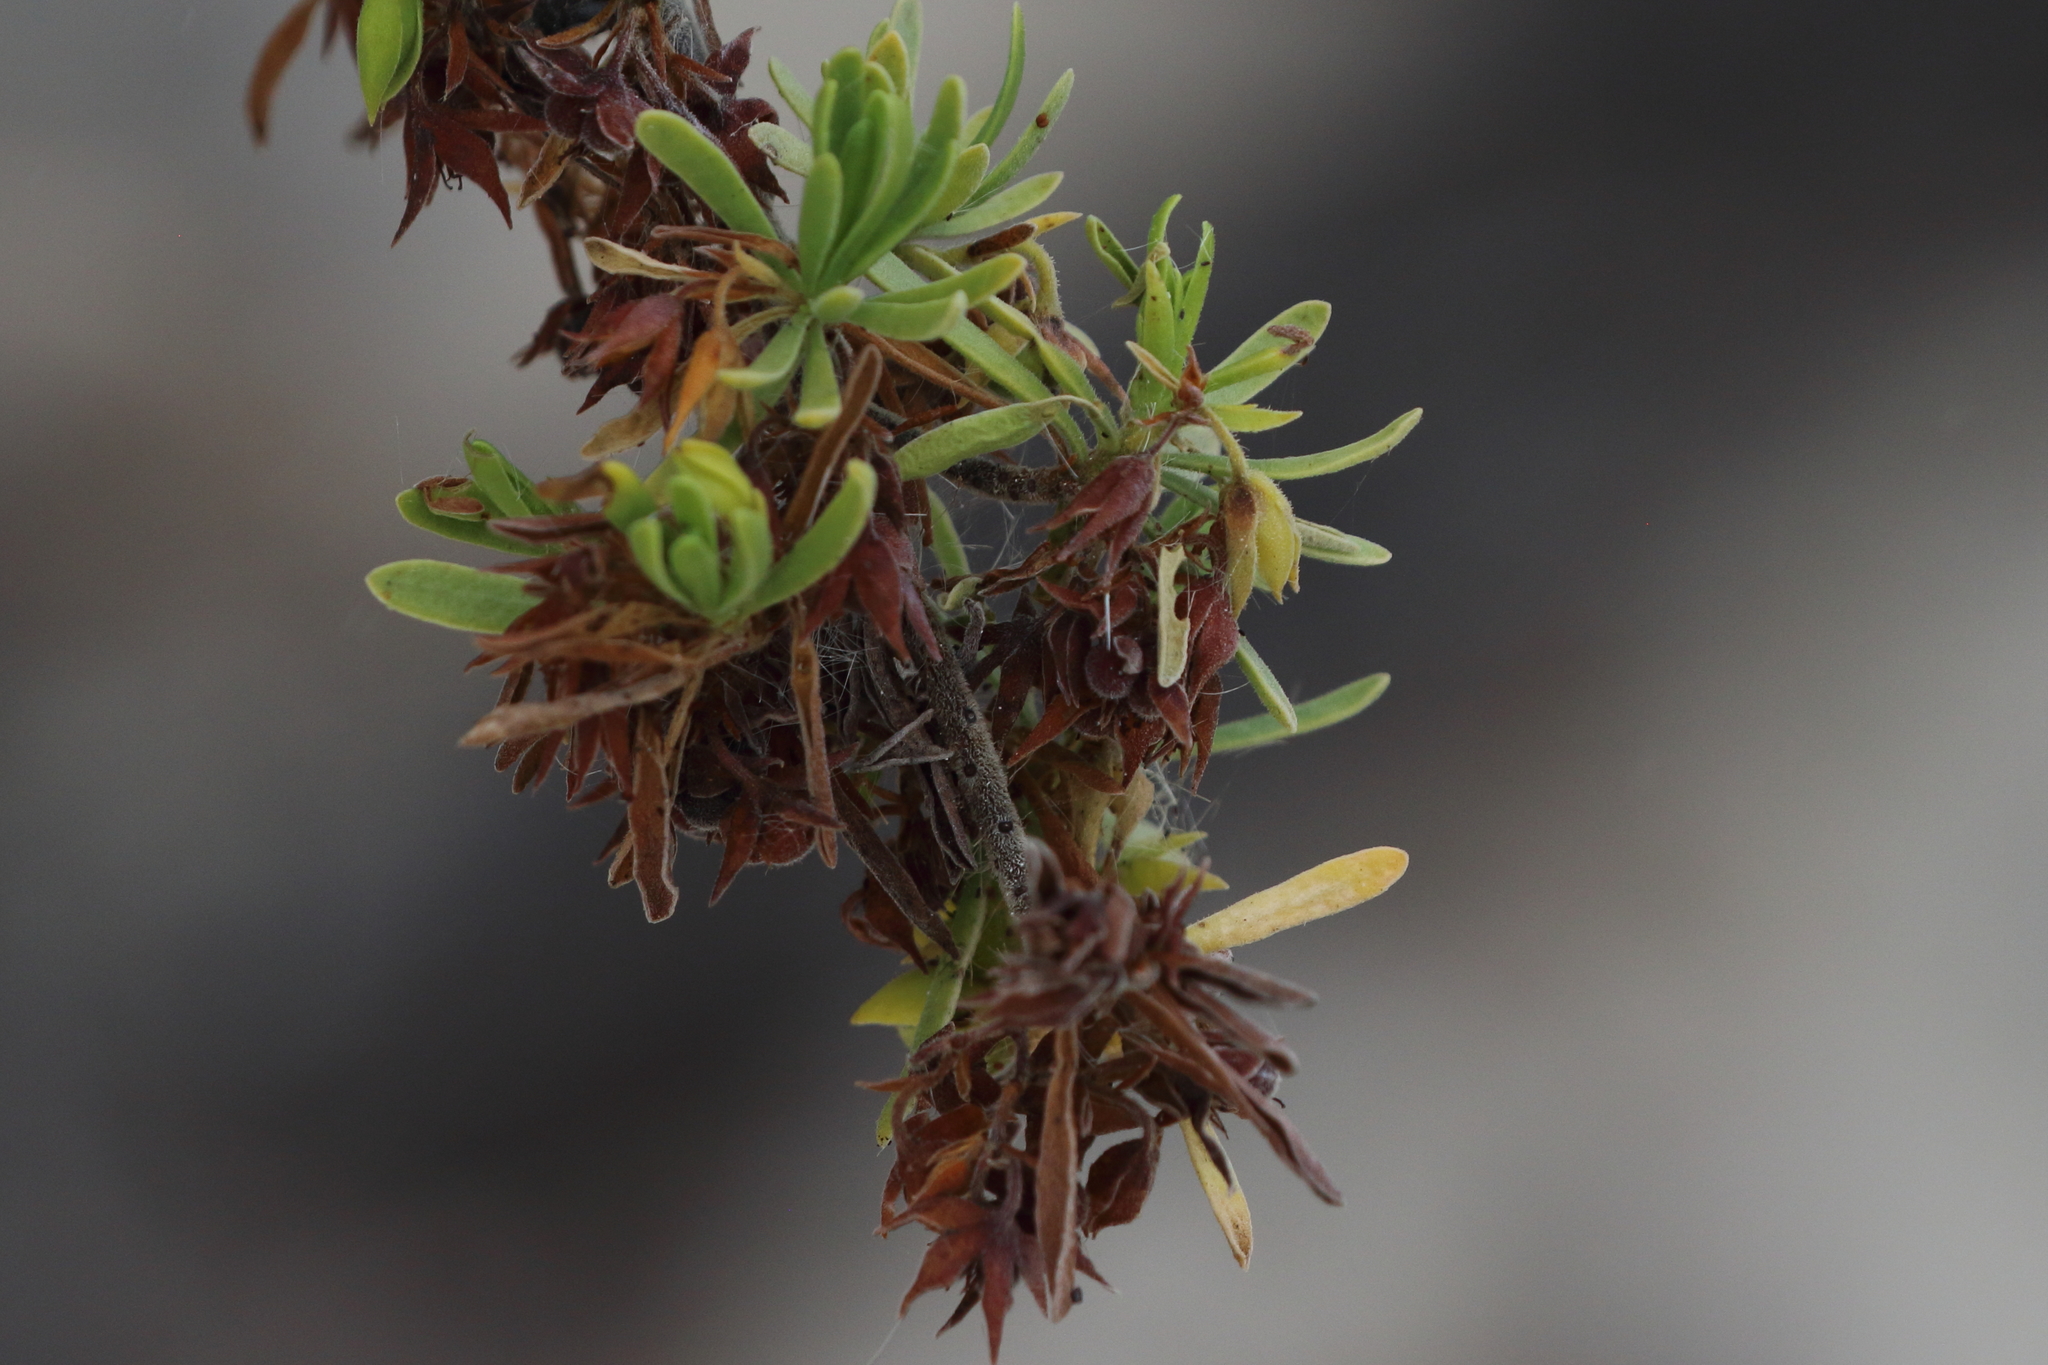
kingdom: Plantae
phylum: Tracheophyta
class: Magnoliopsida
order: Fabales
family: Surianaceae
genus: Suriana
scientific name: Suriana maritima
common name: Bay-cedar
